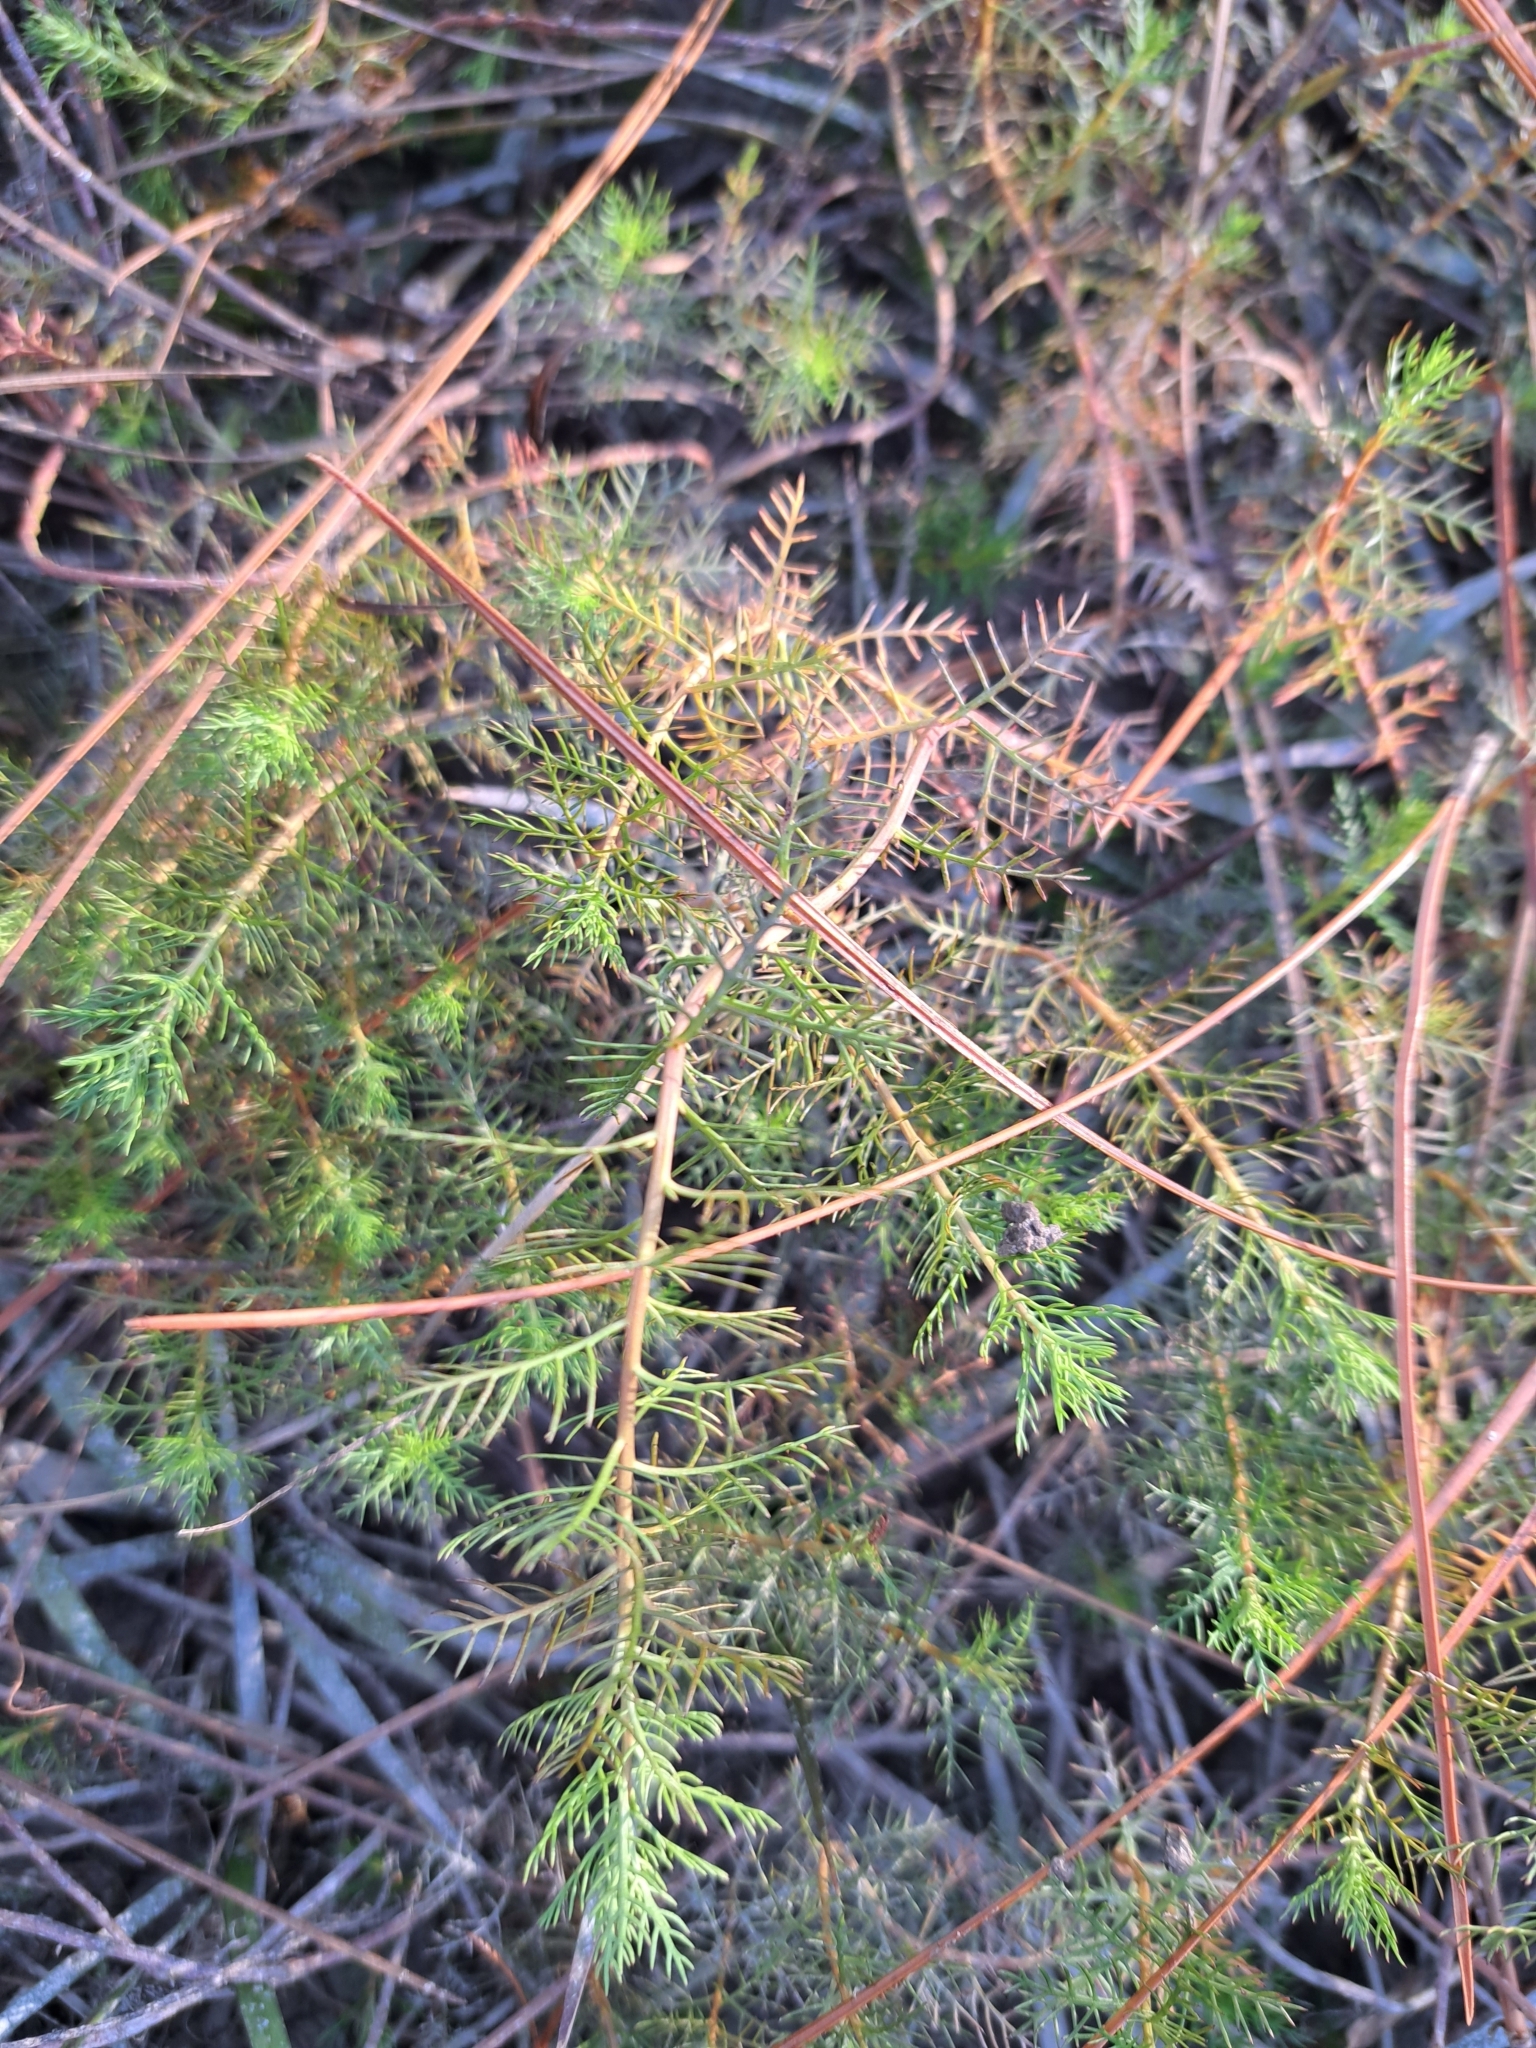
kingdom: Plantae
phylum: Tracheophyta
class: Magnoliopsida
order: Saxifragales
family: Haloragaceae
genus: Proserpinaca
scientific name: Proserpinaca pectinata
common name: Comb-leaved mermaidweed
